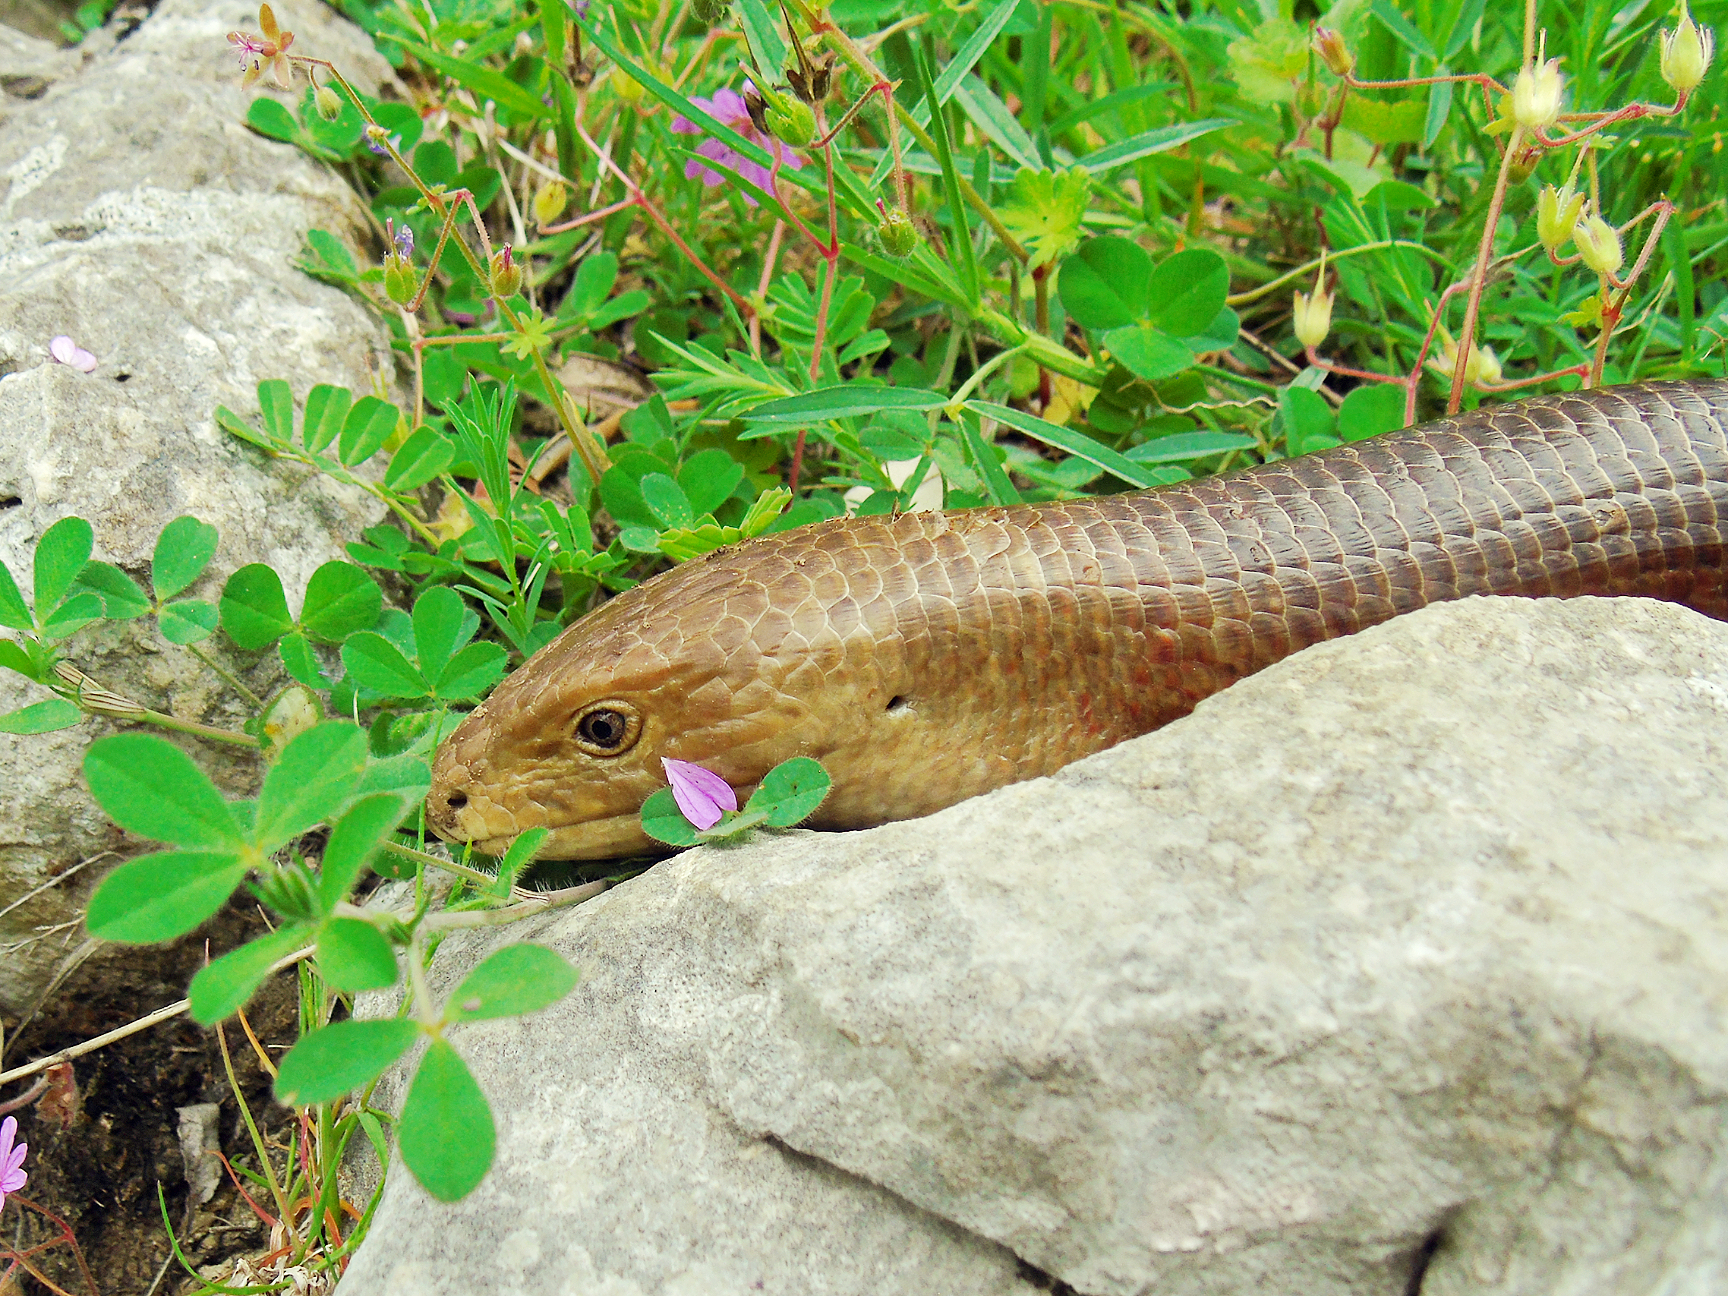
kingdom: Animalia
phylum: Chordata
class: Squamata
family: Anguidae
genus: Pseudopus
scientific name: Pseudopus apodus
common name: European glass lizard
